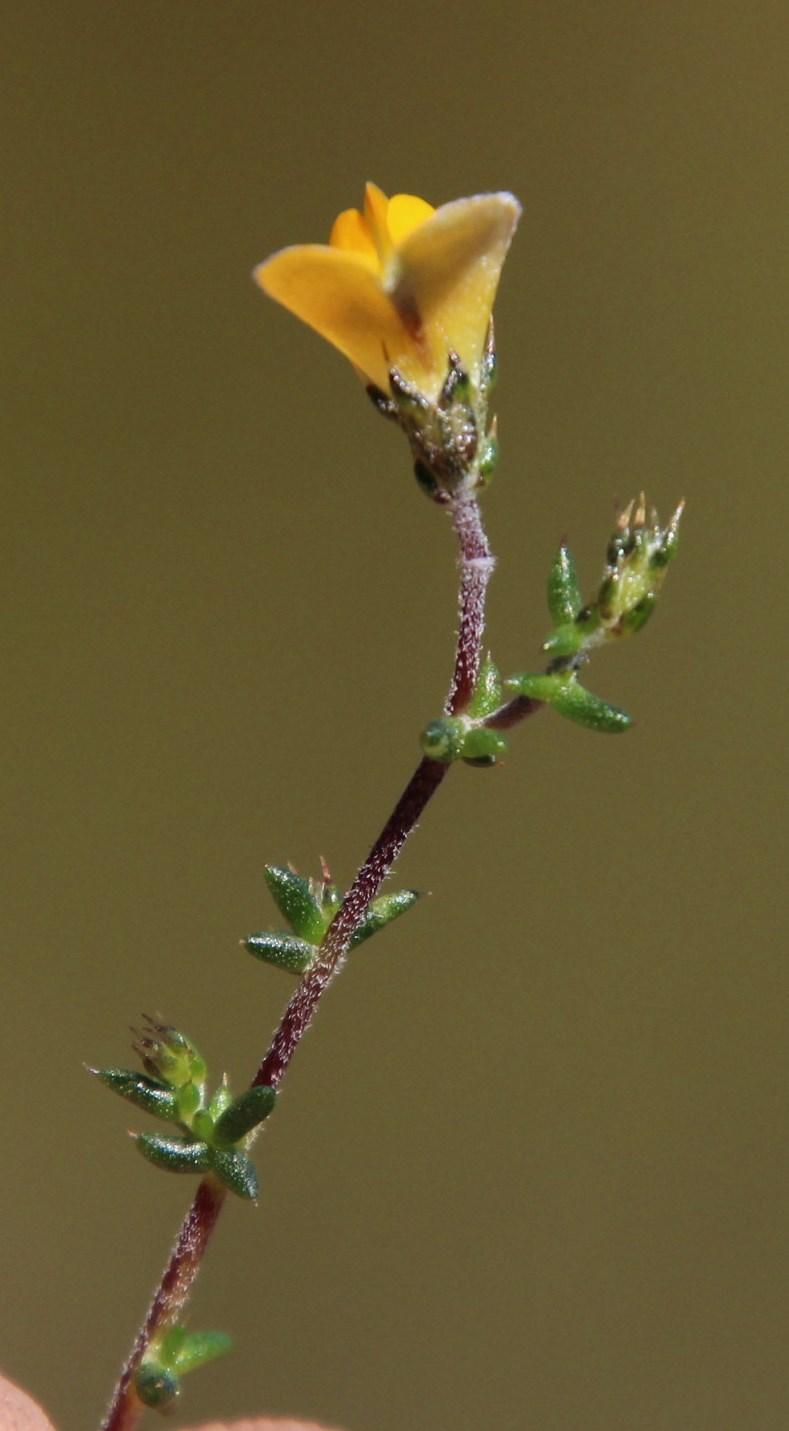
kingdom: Plantae
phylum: Tracheophyta
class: Magnoliopsida
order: Fabales
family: Fabaceae
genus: Aspalathus
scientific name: Aspalathus divaricata
